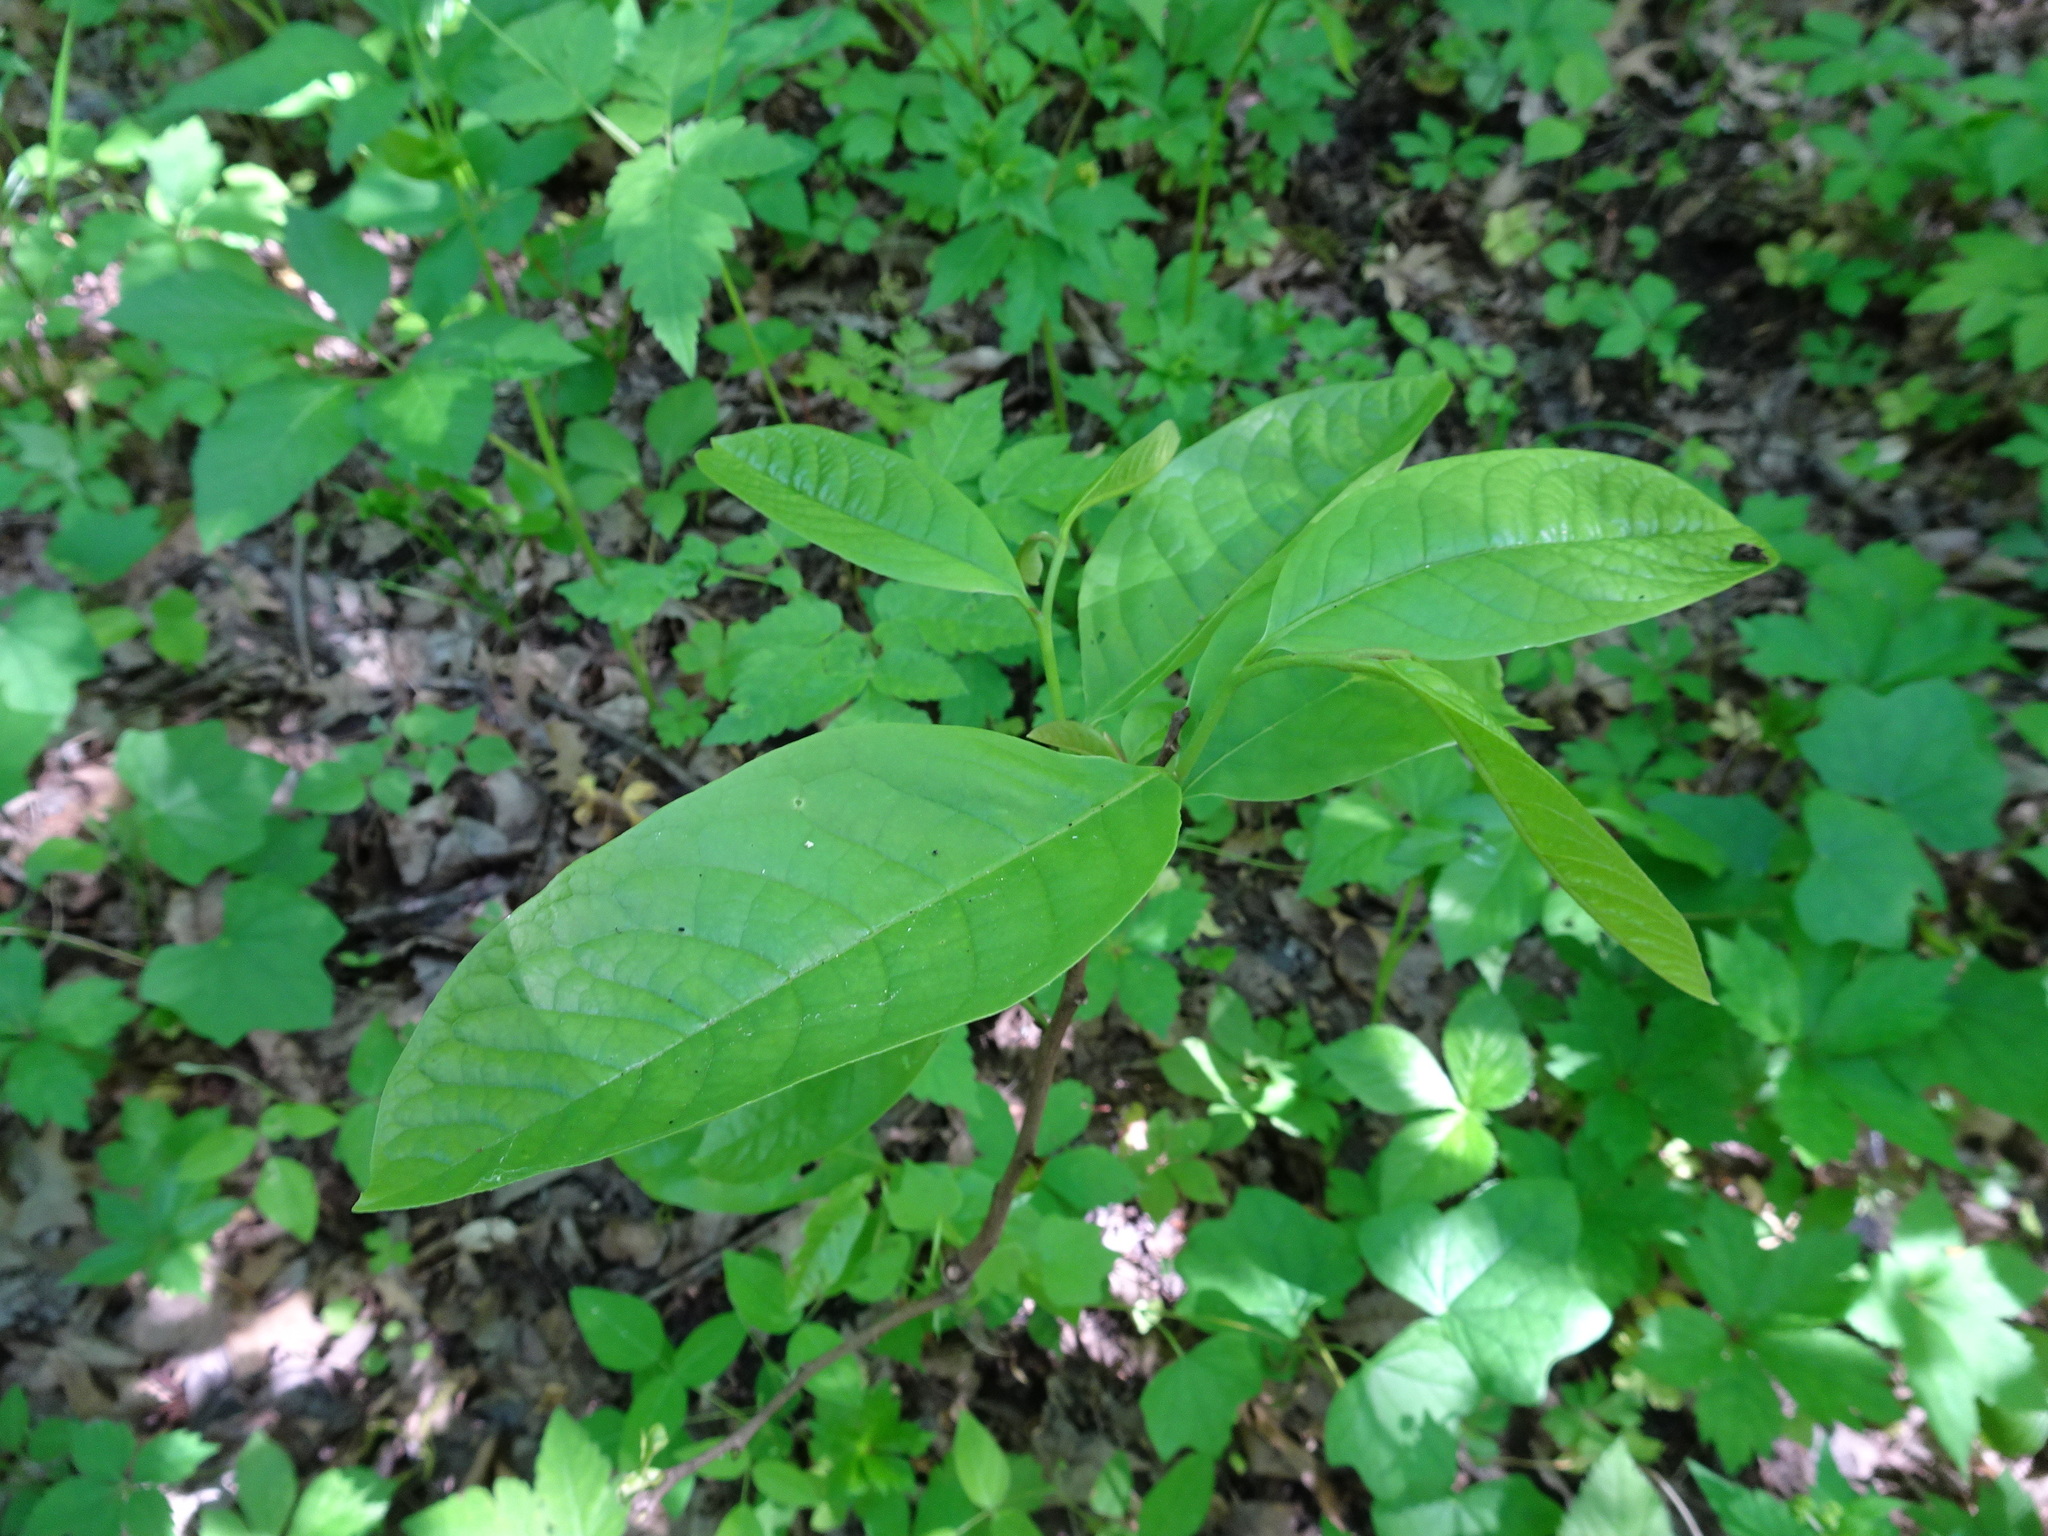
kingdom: Plantae
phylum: Tracheophyta
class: Magnoliopsida
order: Magnoliales
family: Annonaceae
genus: Asimina
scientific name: Asimina triloba
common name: Dog-banana
